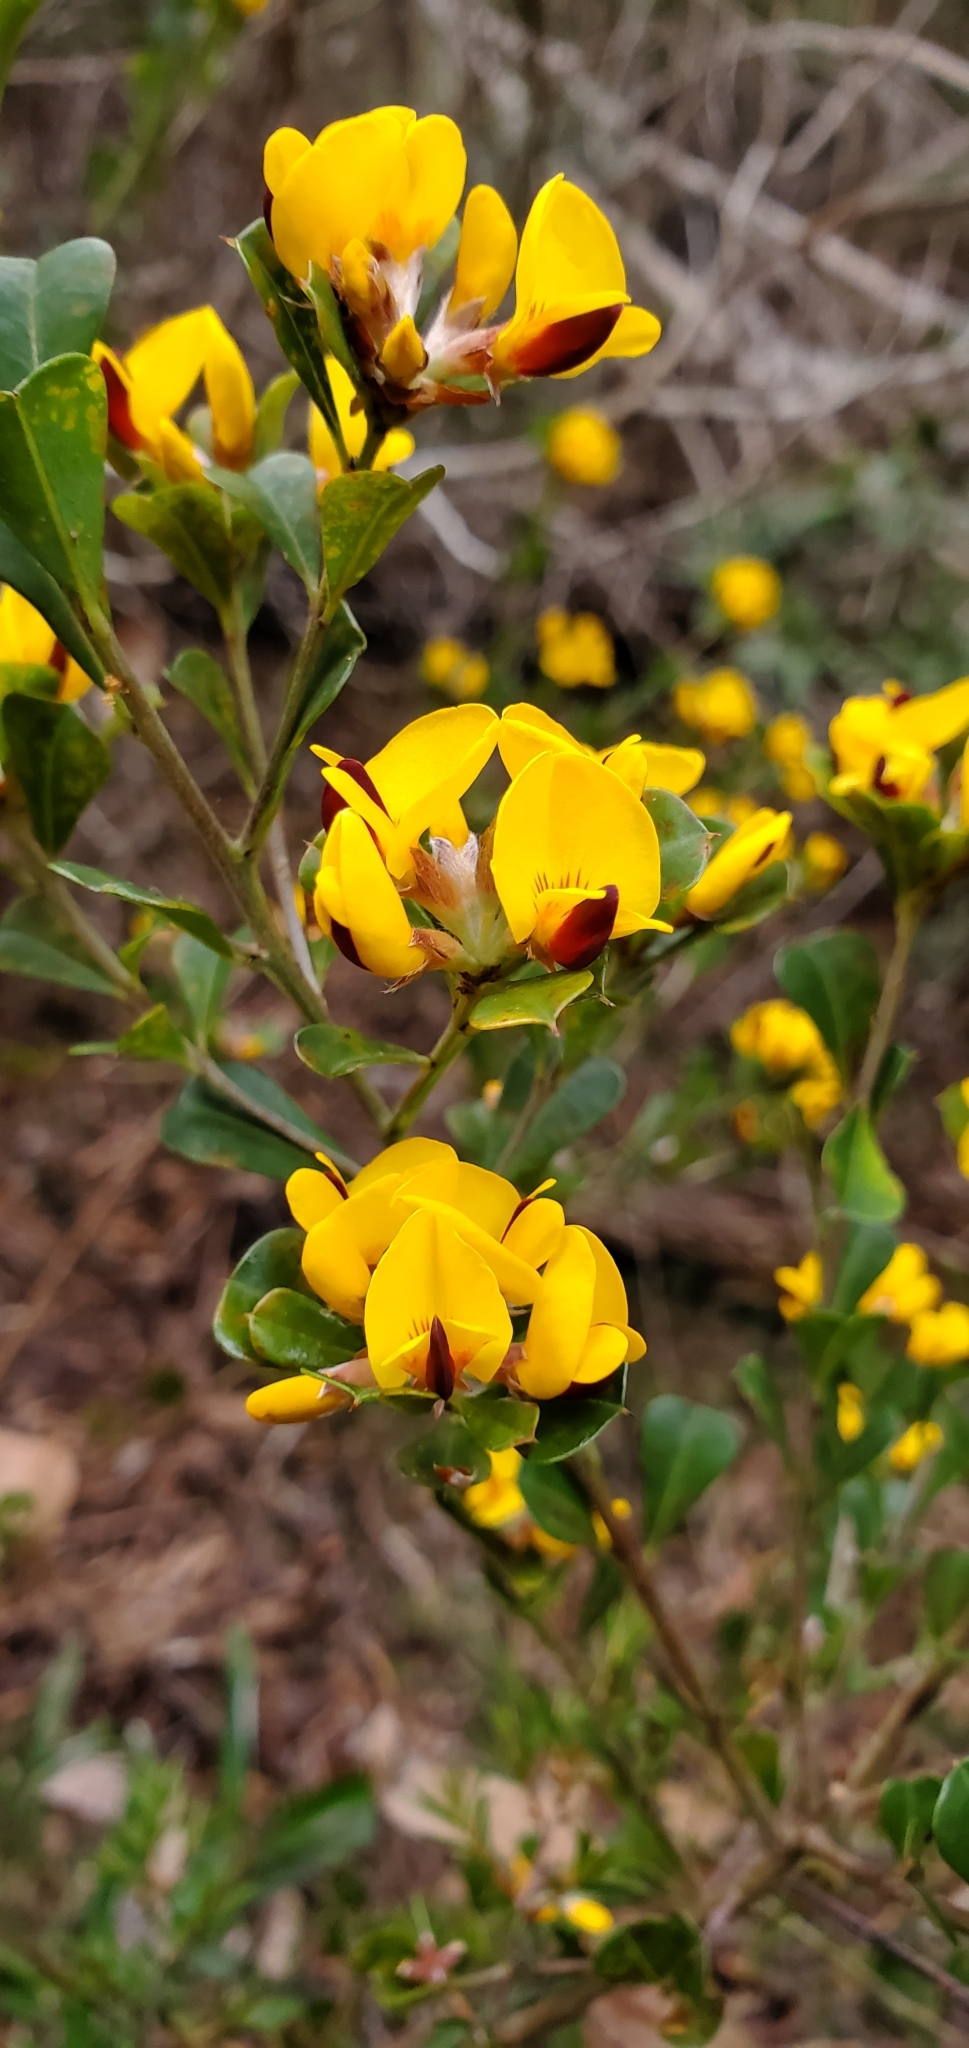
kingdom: Plantae
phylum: Tracheophyta
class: Magnoliopsida
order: Fabales
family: Fabaceae
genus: Pultenaea
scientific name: Pultenaea daphnoides
